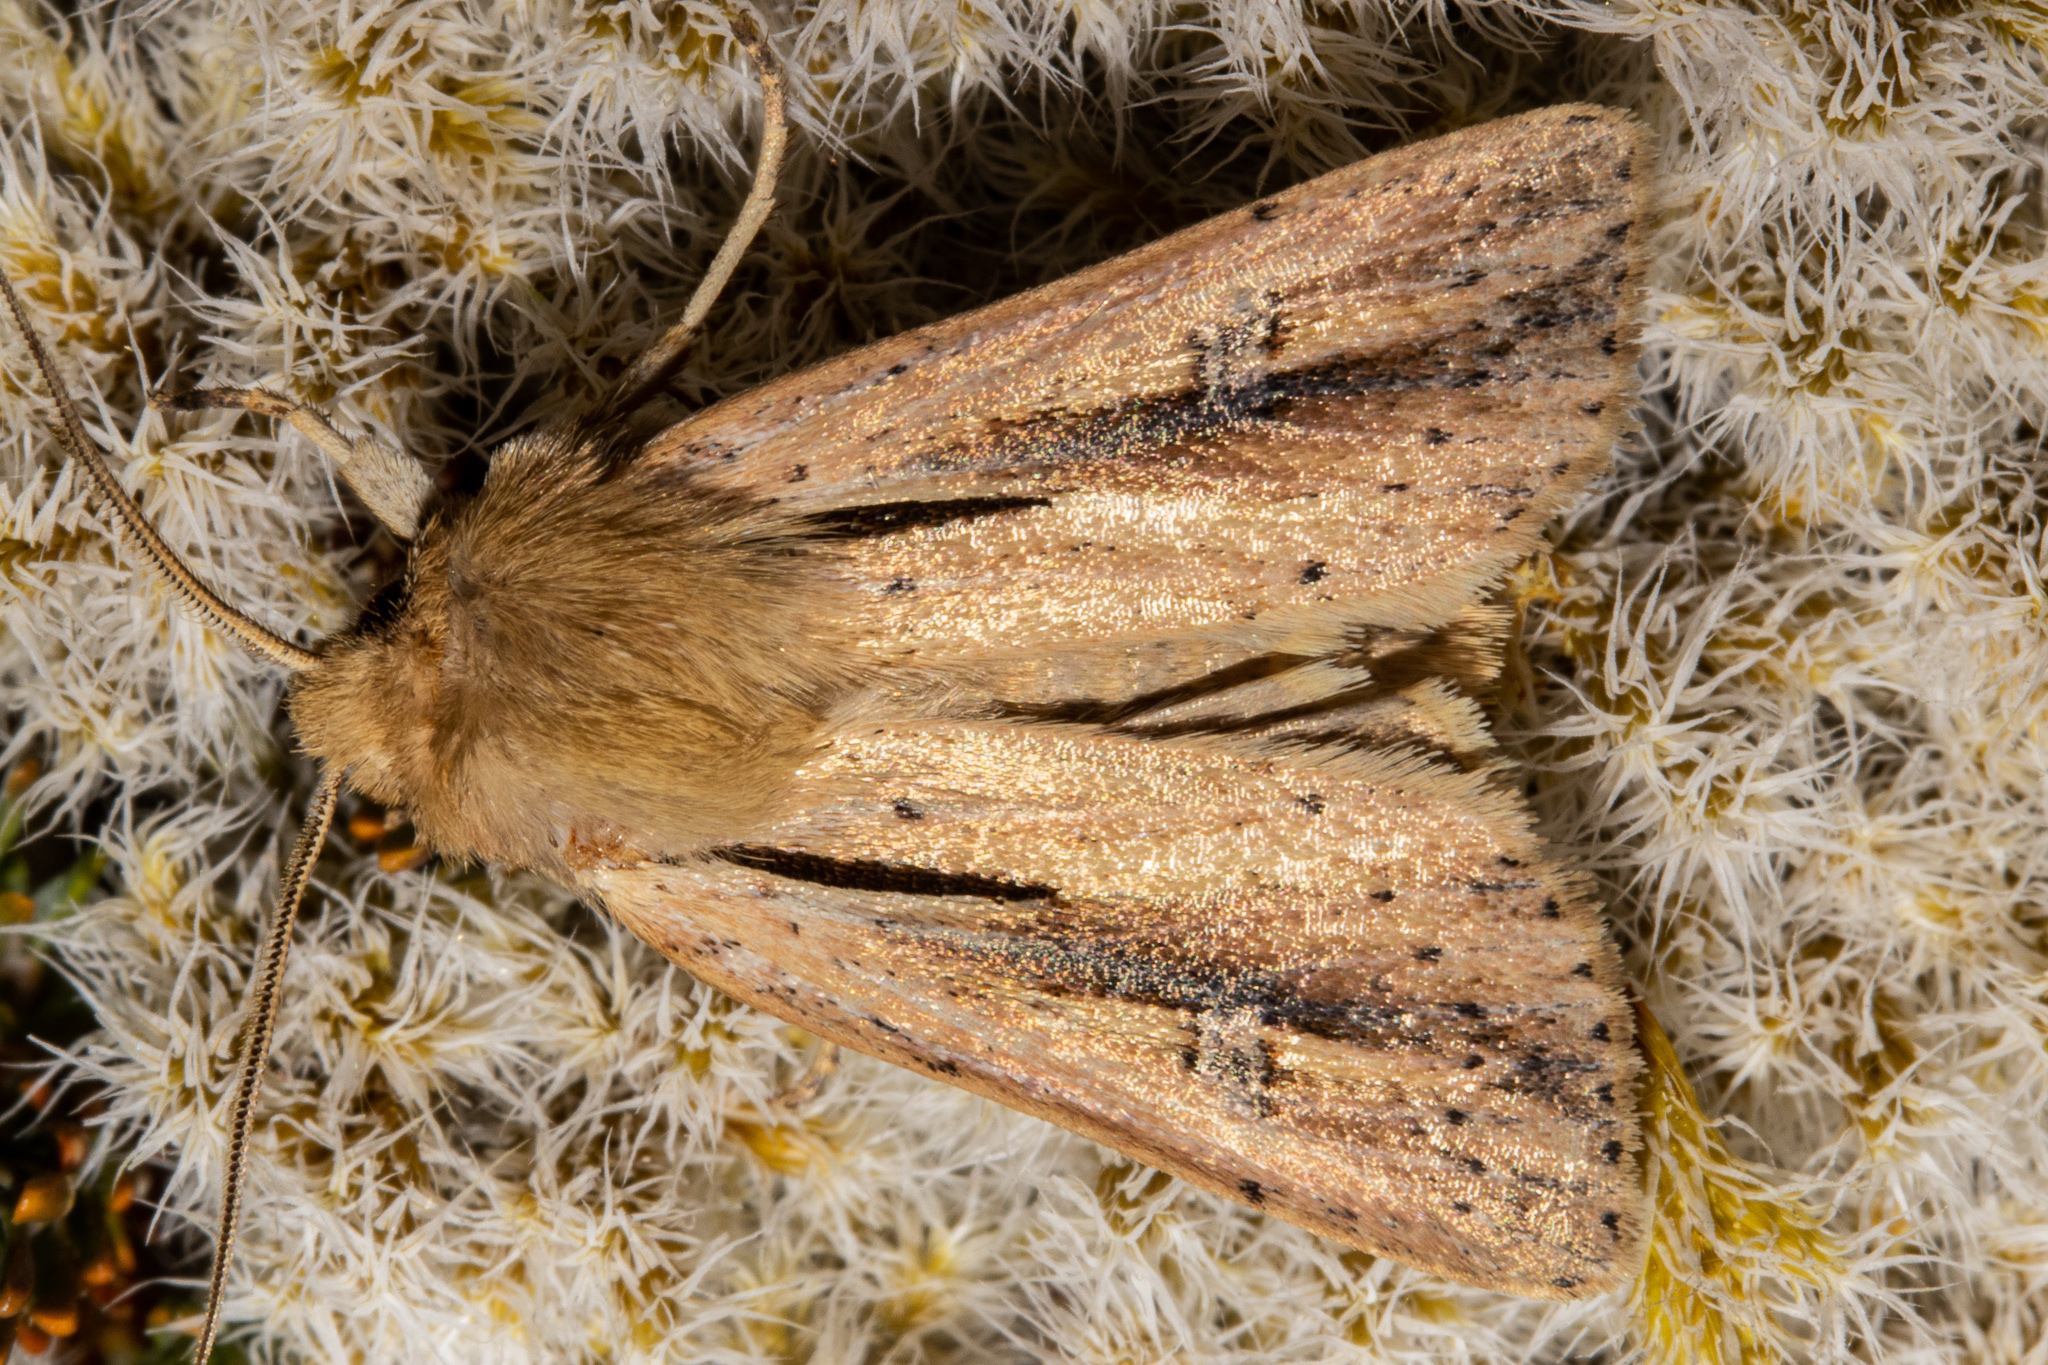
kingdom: Animalia
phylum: Arthropoda
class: Insecta
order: Lepidoptera
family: Noctuidae
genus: Ichneutica
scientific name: Ichneutica propria
